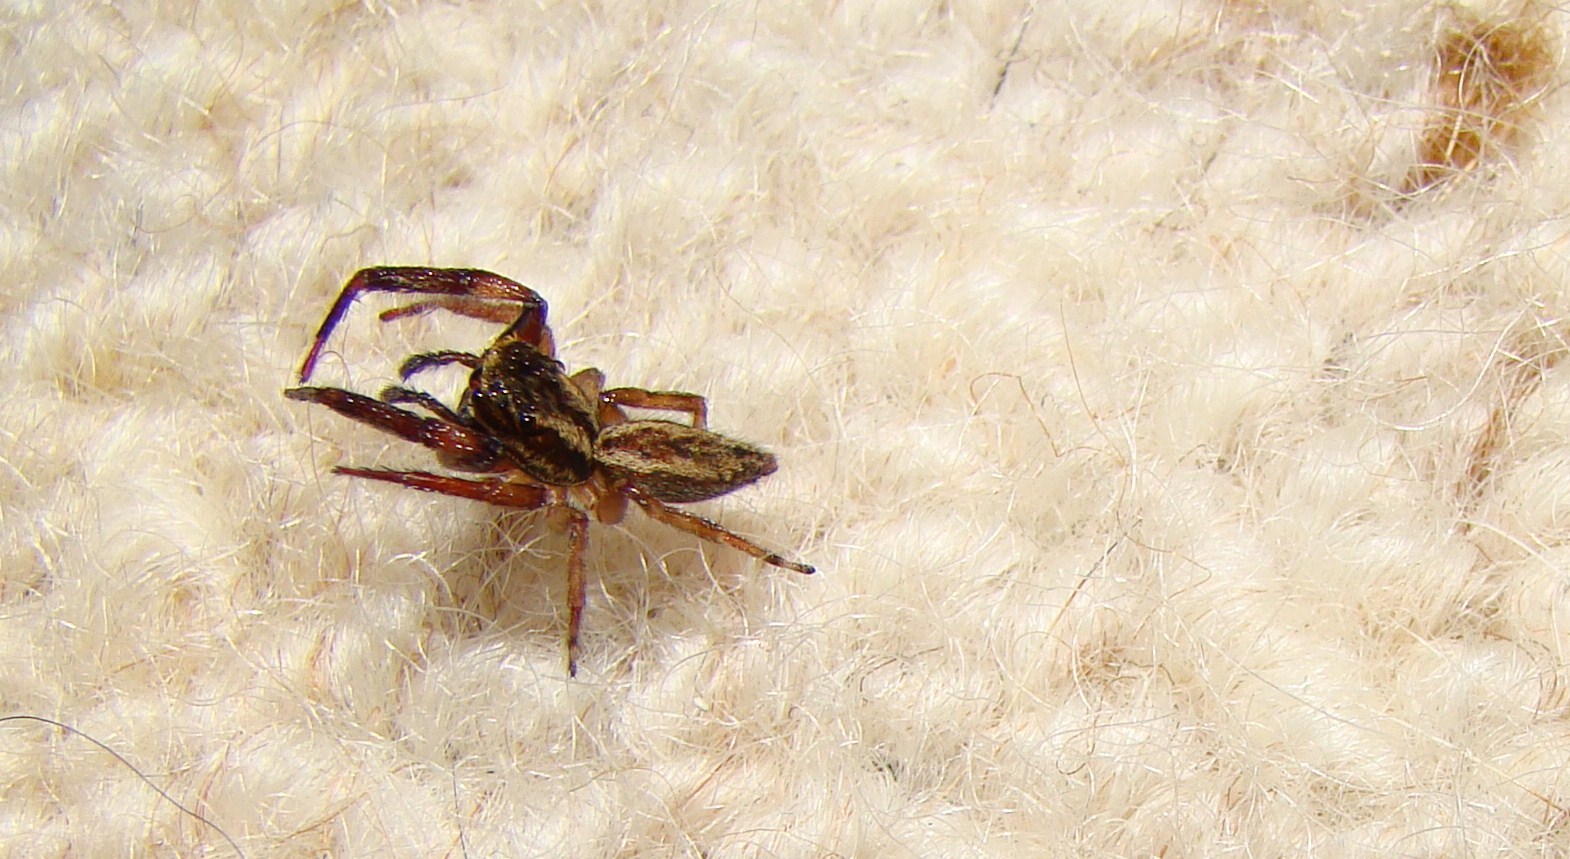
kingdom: Animalia
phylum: Arthropoda
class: Arachnida
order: Araneae
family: Salticidae
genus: Trite
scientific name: Trite auricoma
